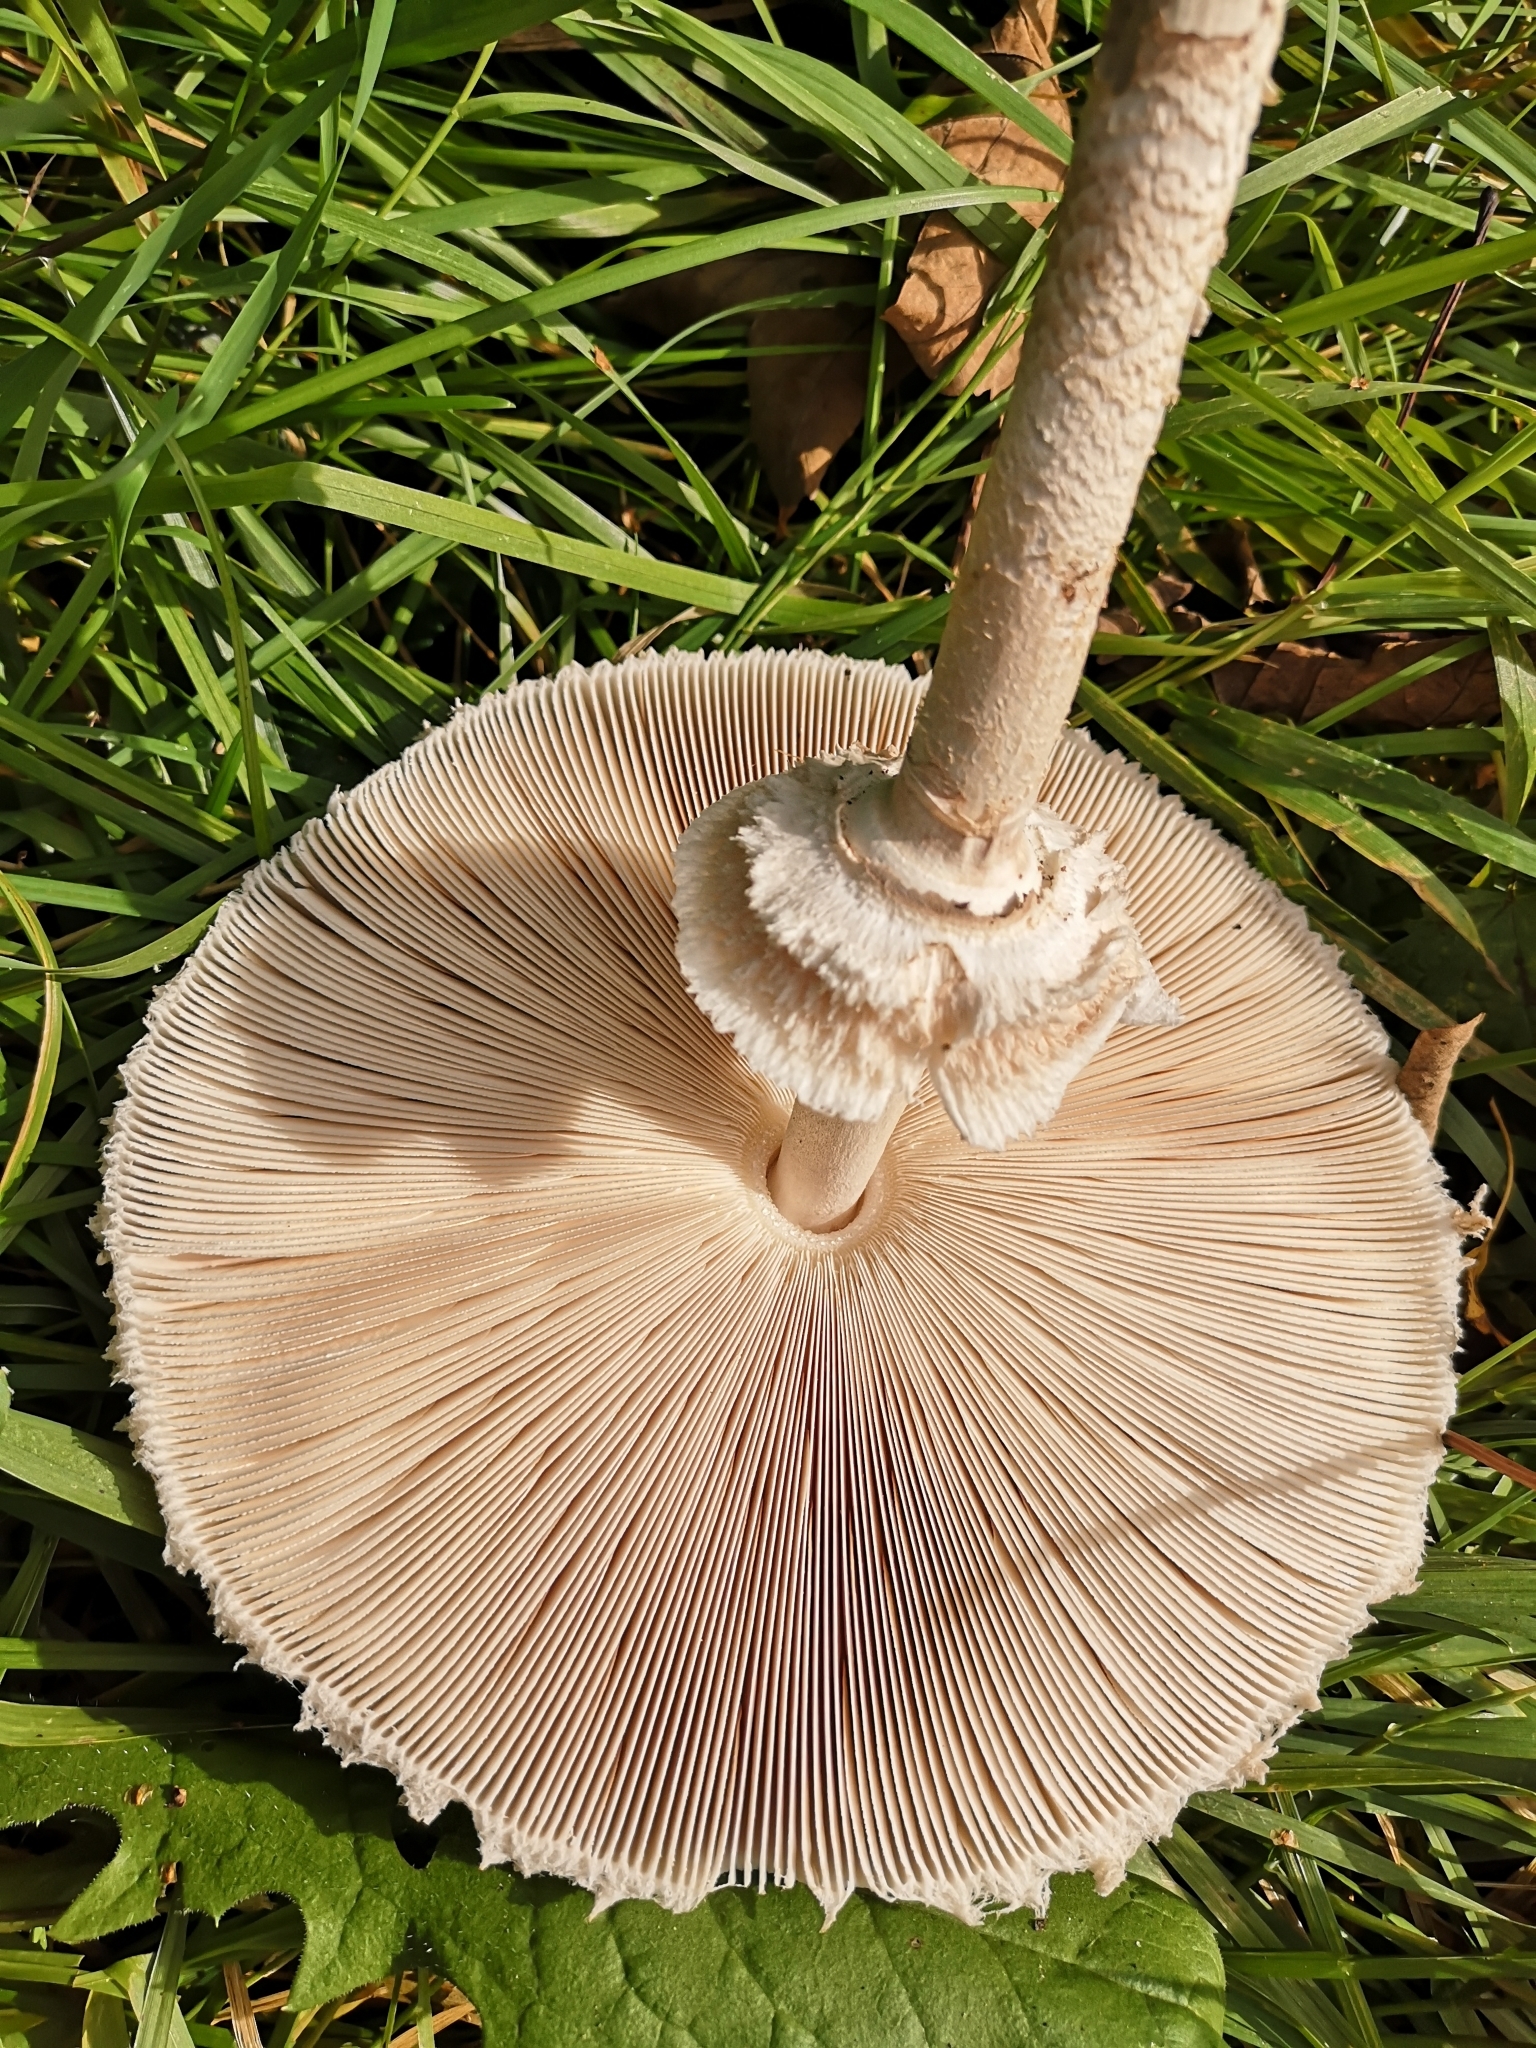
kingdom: Fungi
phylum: Basidiomycota
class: Agaricomycetes
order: Agaricales
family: Agaricaceae
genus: Macrolepiota
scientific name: Macrolepiota procera
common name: Parasol
